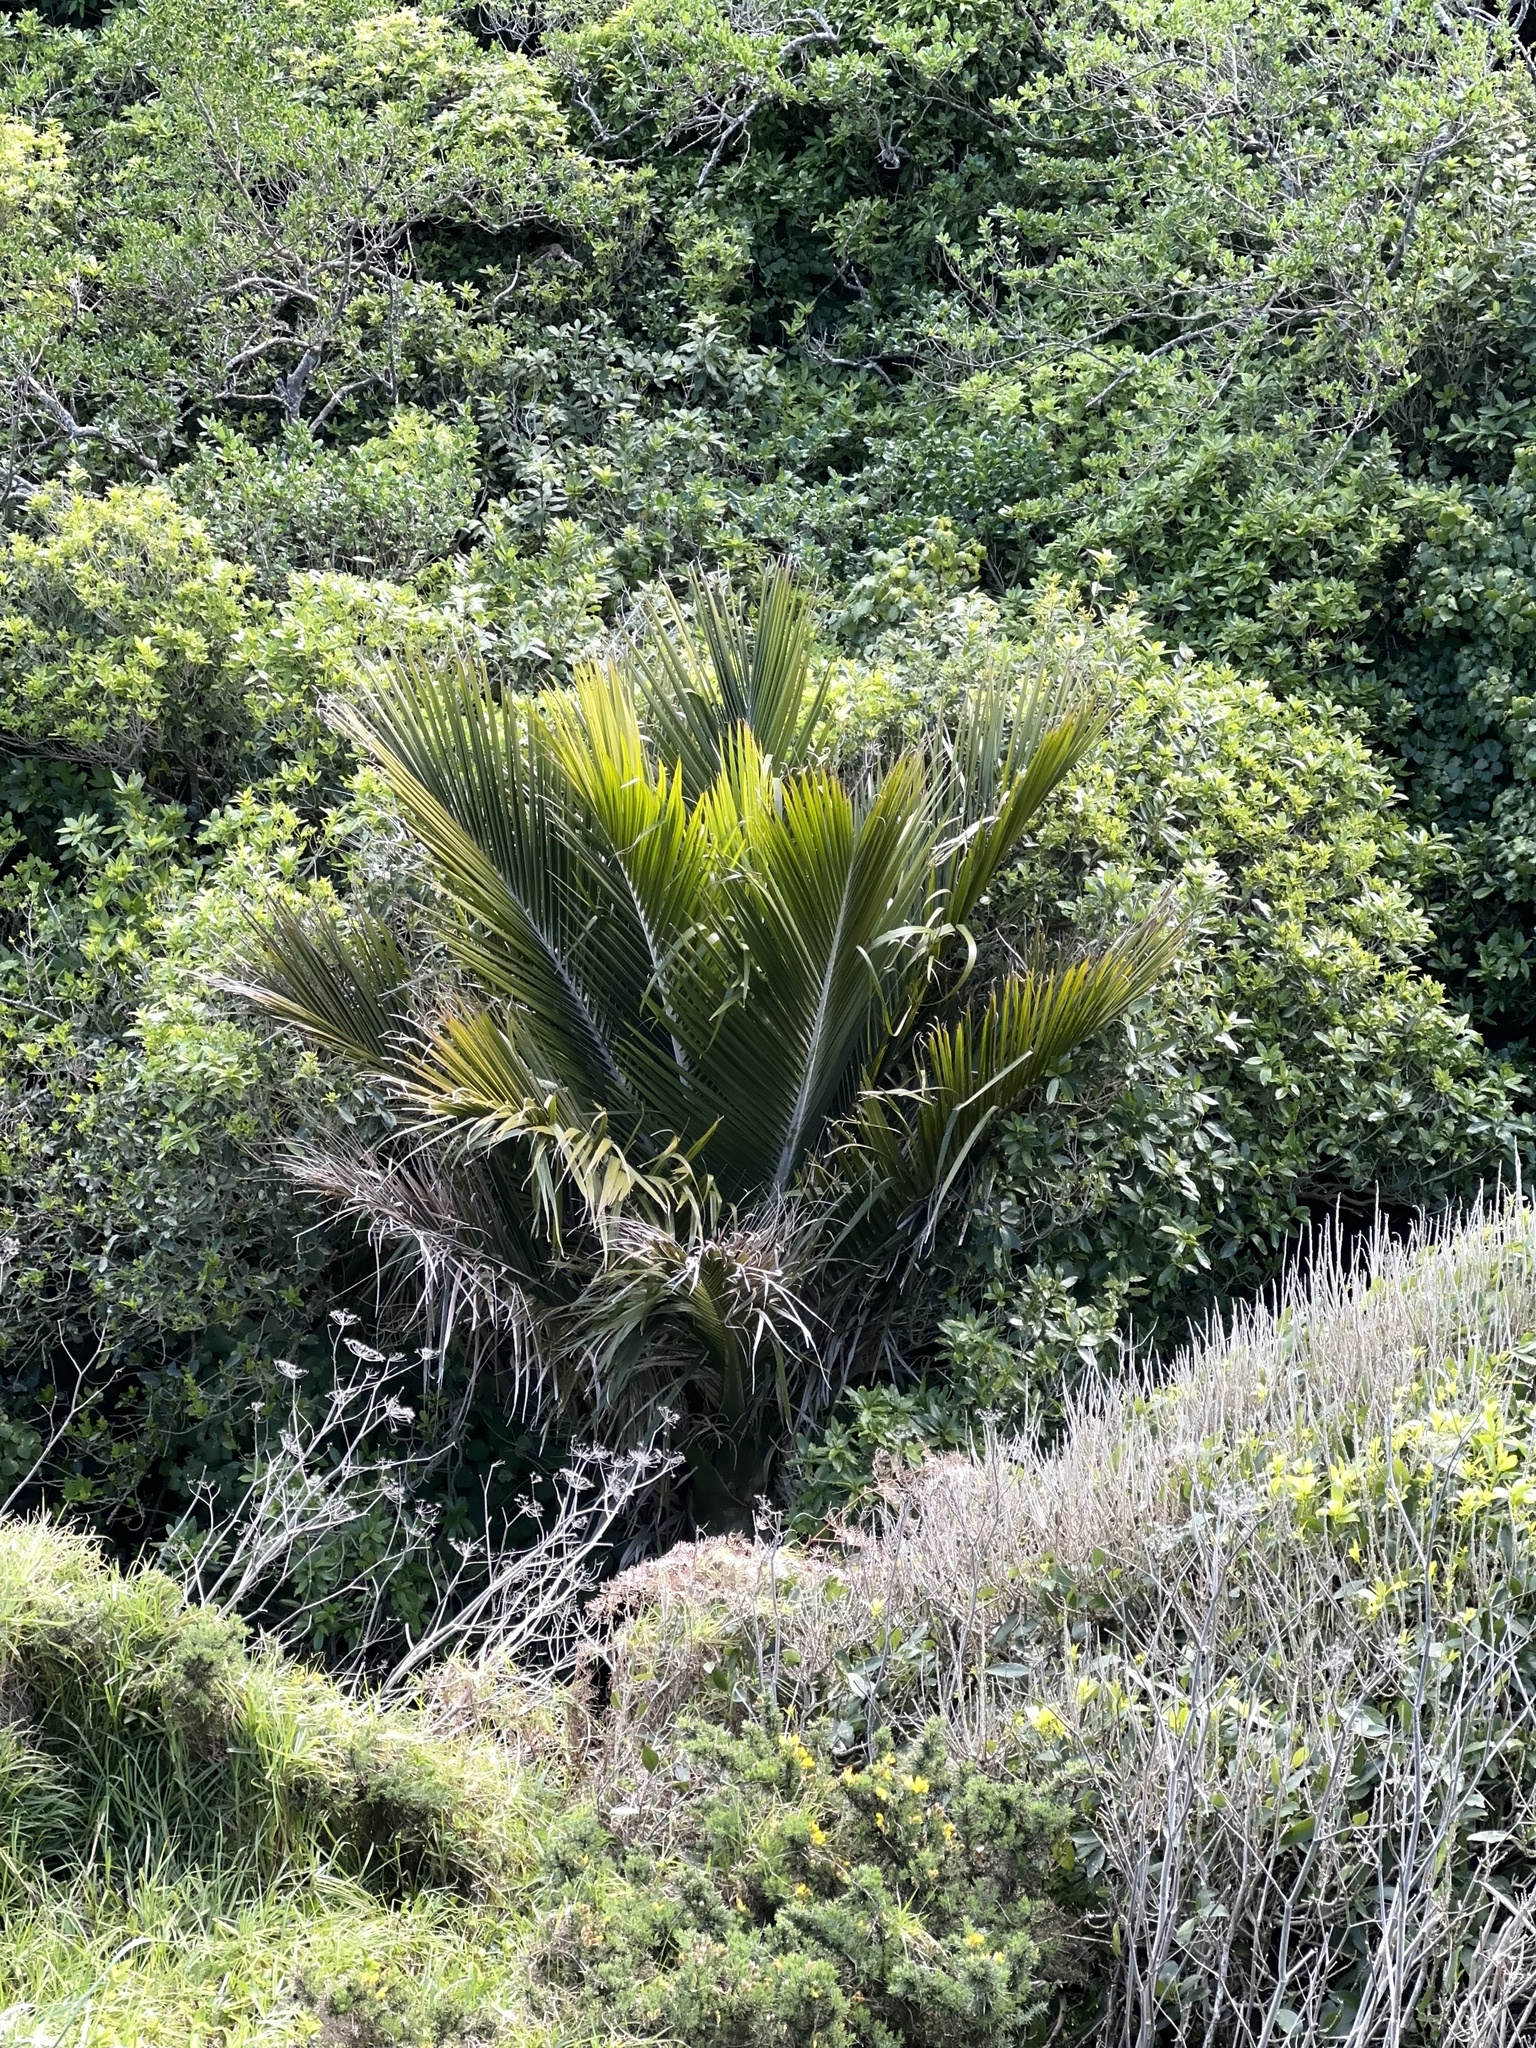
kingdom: Plantae
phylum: Tracheophyta
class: Liliopsida
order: Arecales
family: Arecaceae
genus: Rhopalostylis
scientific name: Rhopalostylis sapida
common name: Feather-duster palm
